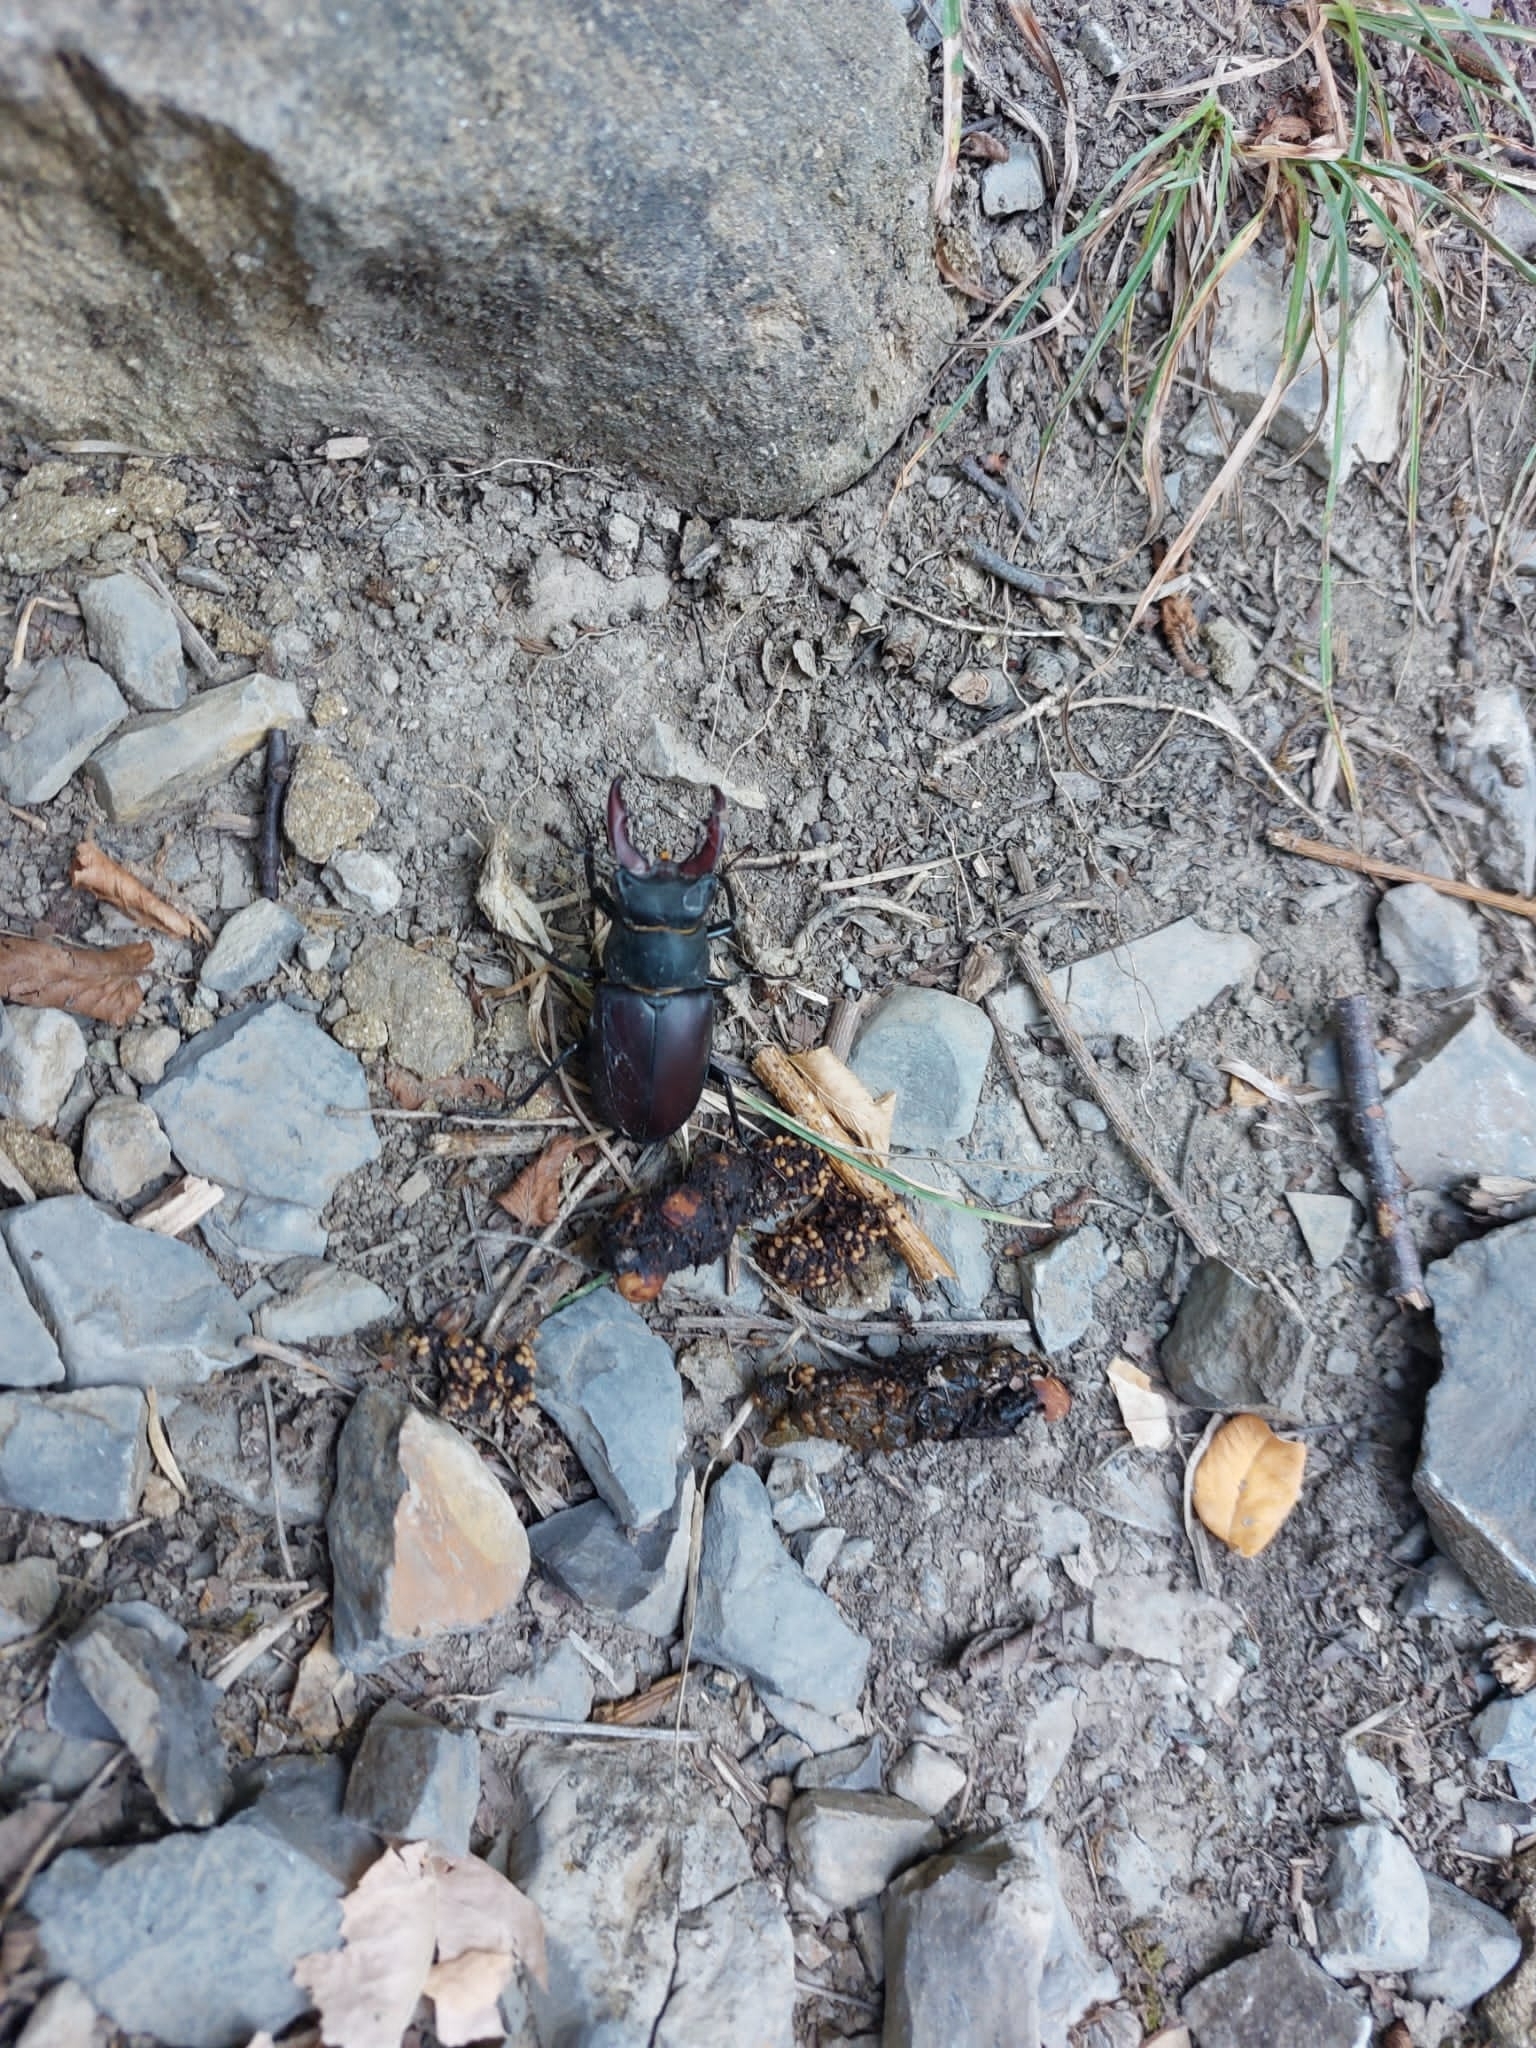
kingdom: Animalia
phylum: Arthropoda
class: Insecta
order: Coleoptera
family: Lucanidae
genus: Lucanus
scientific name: Lucanus cervus
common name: Stag beetle
